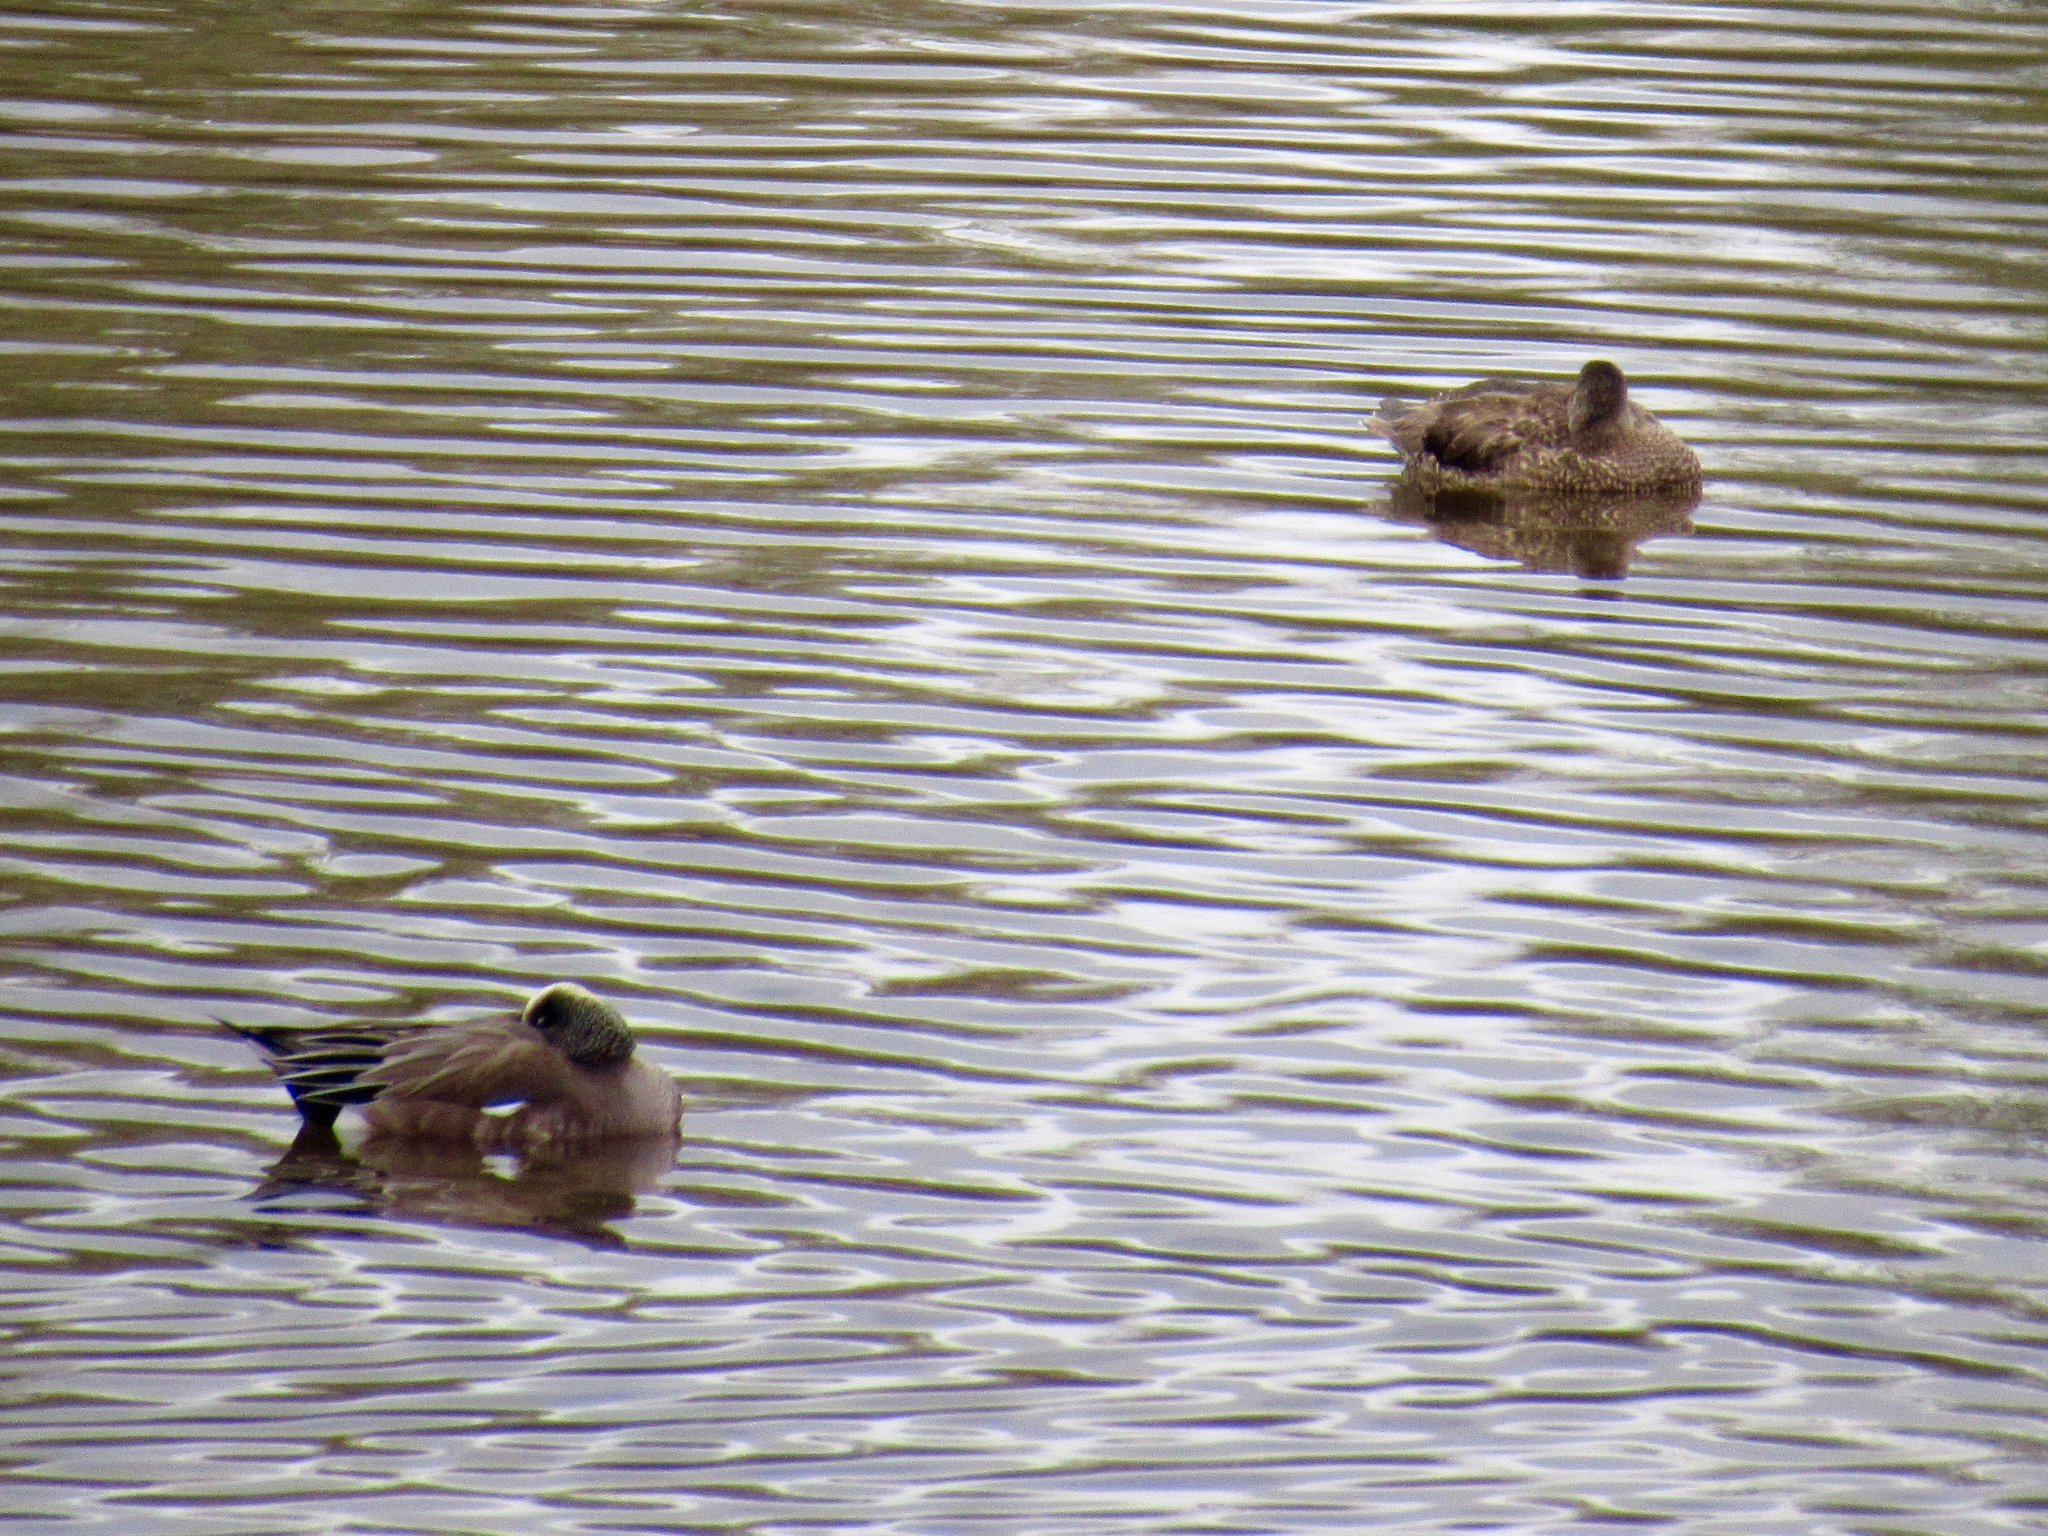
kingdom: Animalia
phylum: Chordata
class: Aves
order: Anseriformes
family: Anatidae
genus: Mareca
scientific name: Mareca americana
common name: American wigeon
